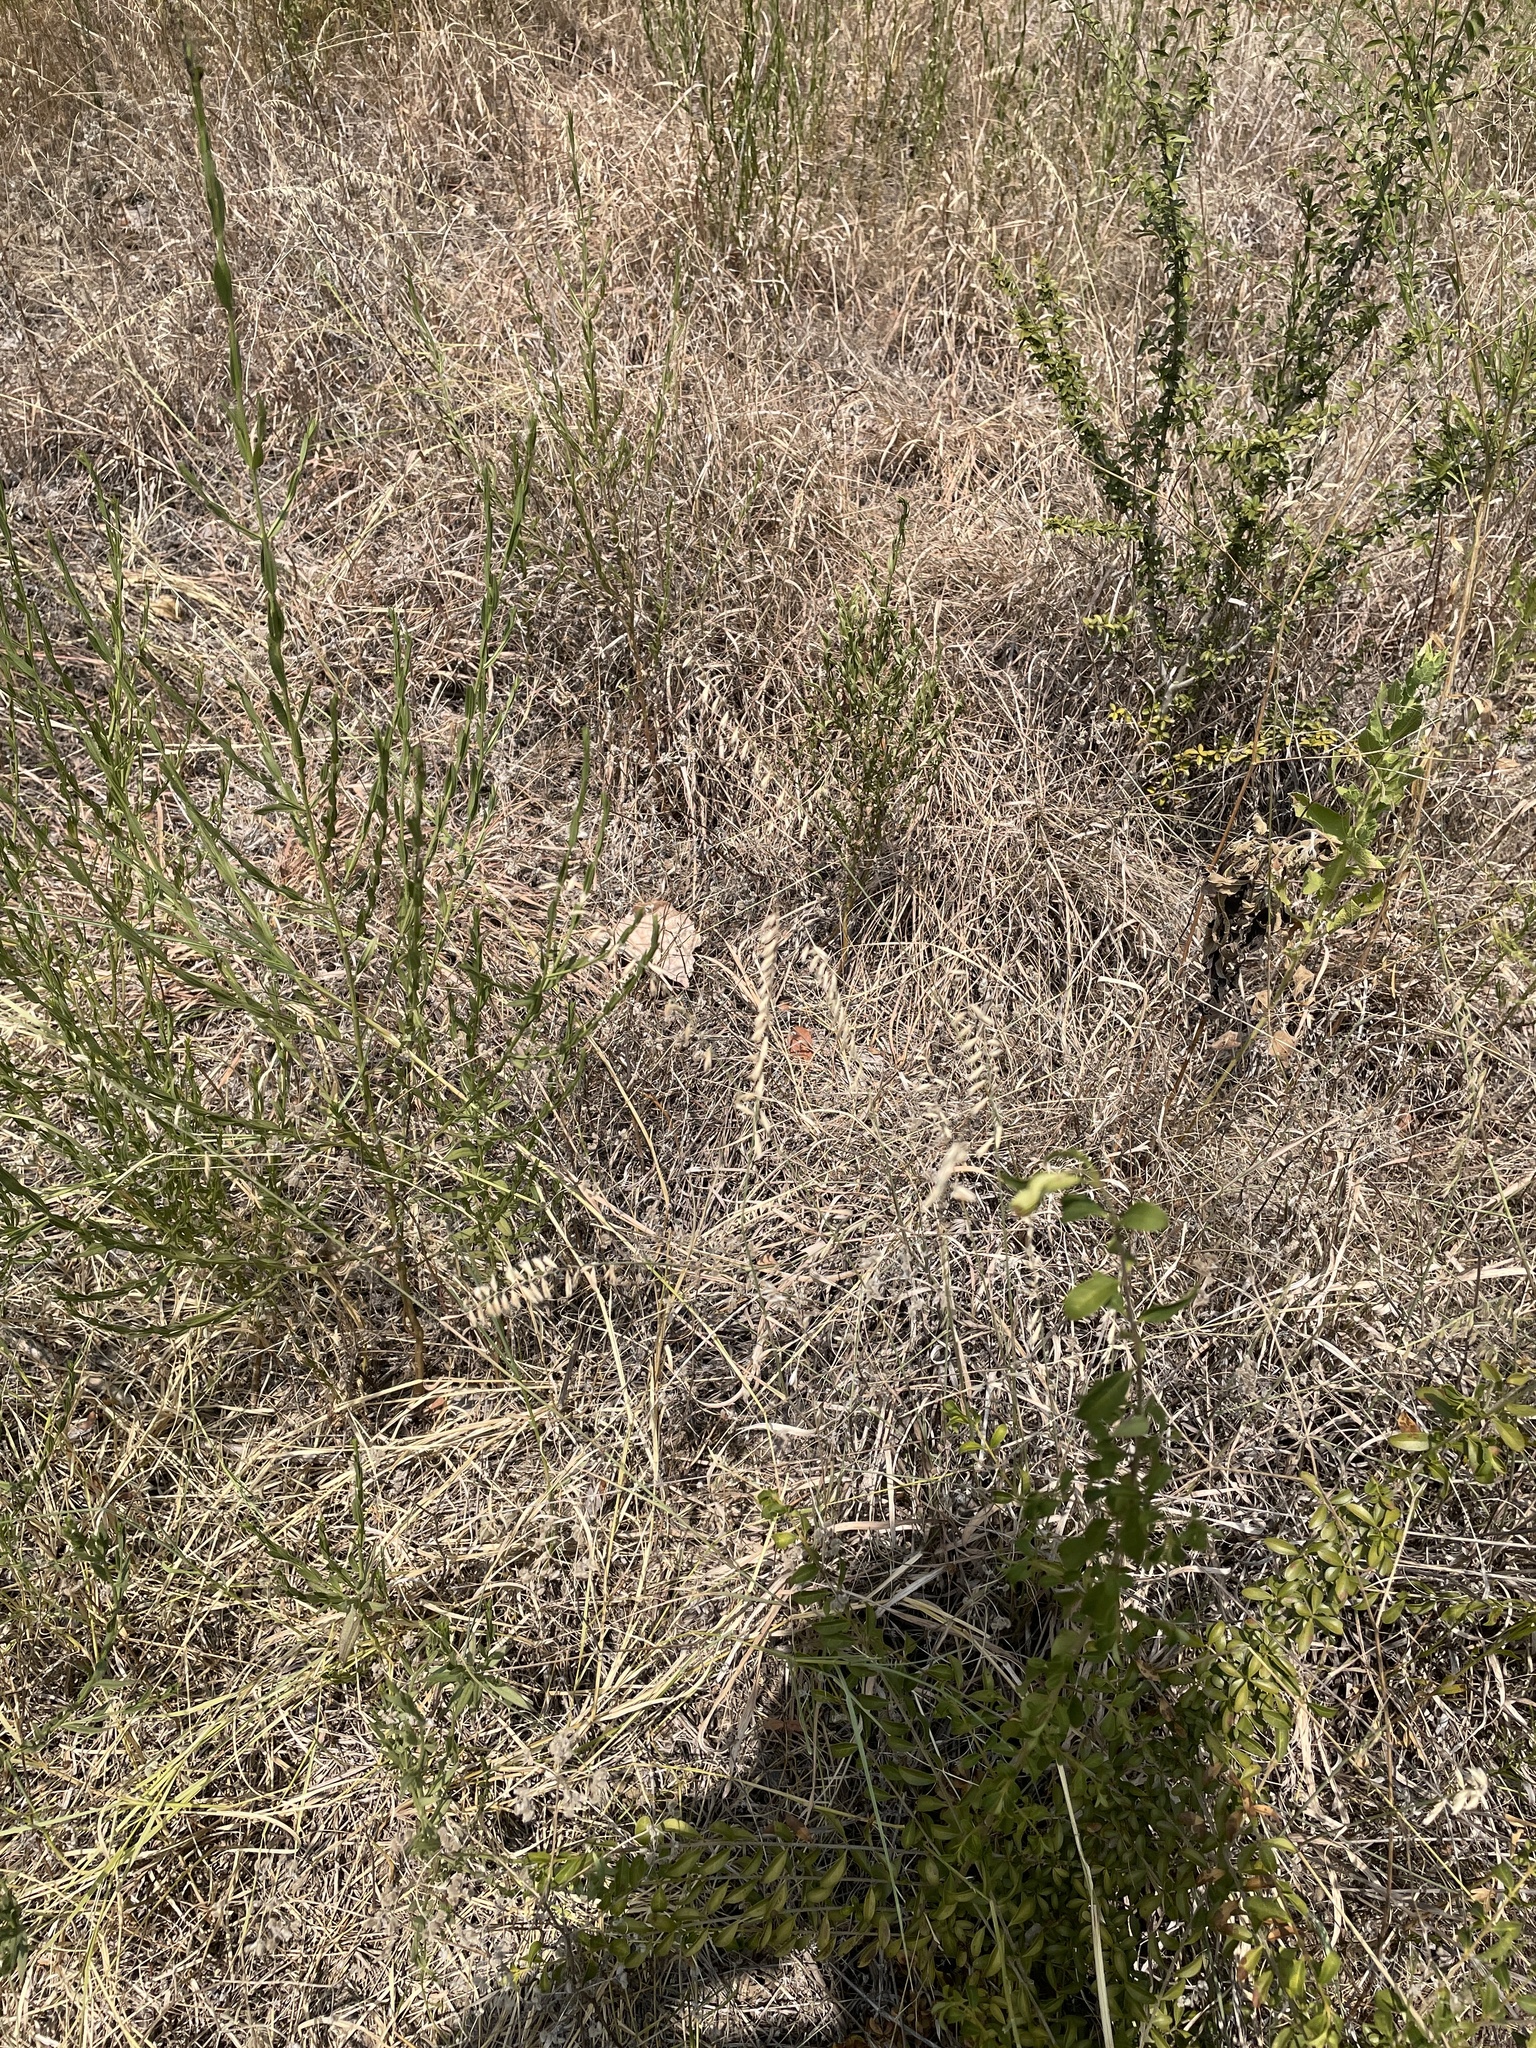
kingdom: Plantae
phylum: Tracheophyta
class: Liliopsida
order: Poales
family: Poaceae
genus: Bouteloua
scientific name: Bouteloua curtipendula
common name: Side-oats grama
